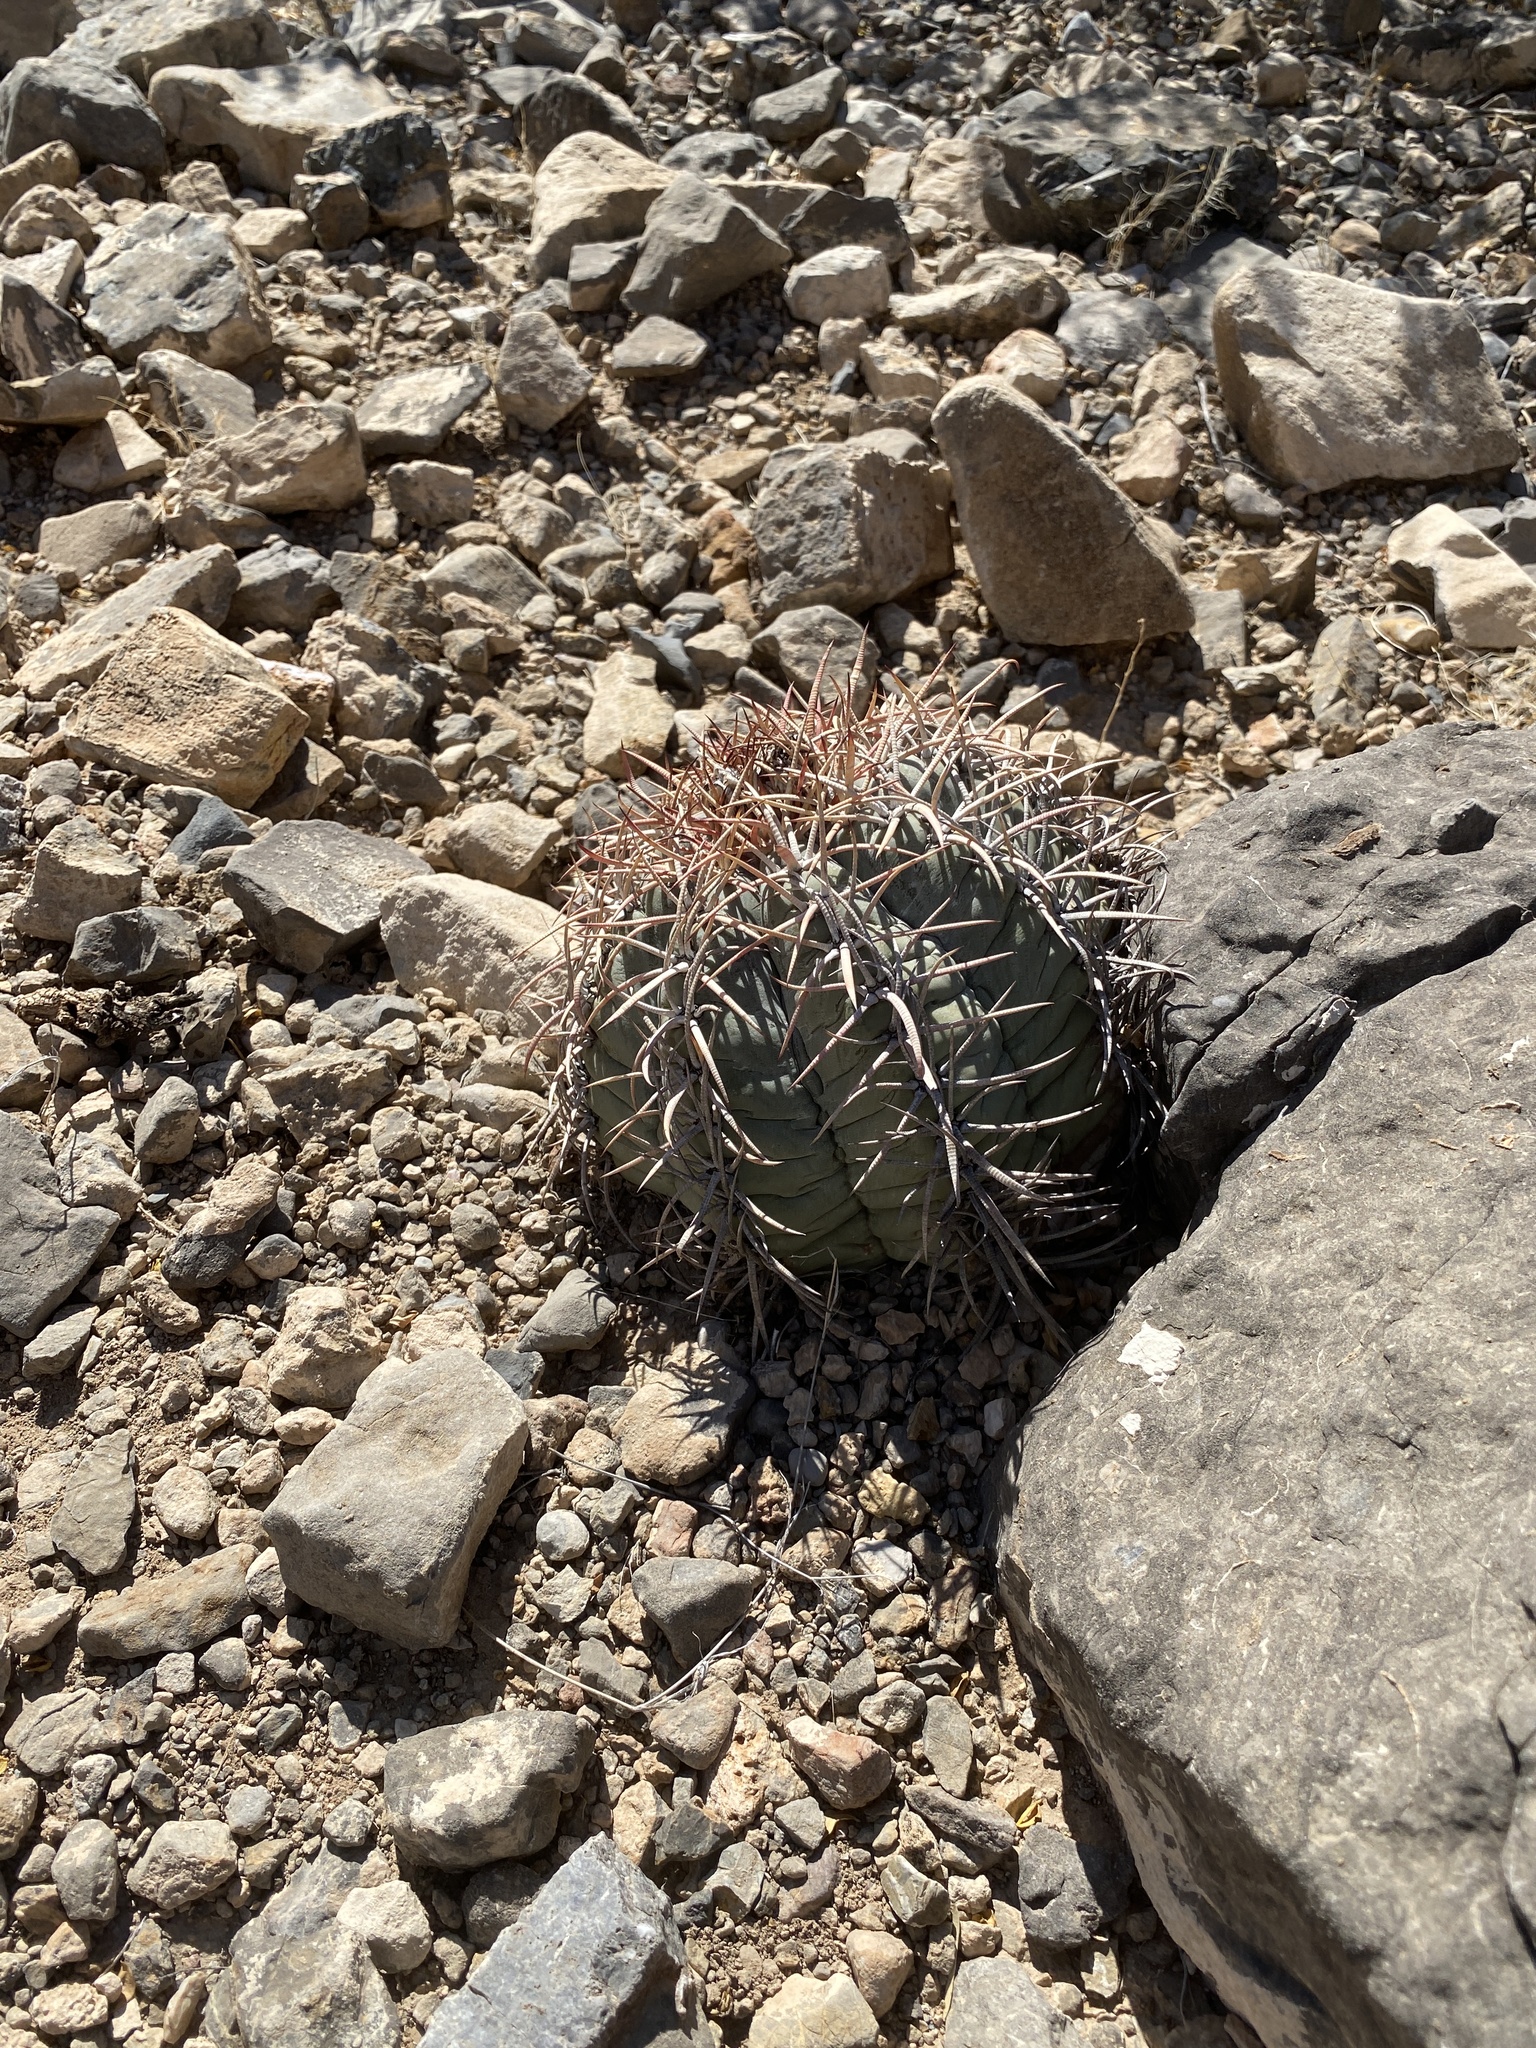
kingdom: Plantae
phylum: Tracheophyta
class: Magnoliopsida
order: Caryophyllales
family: Cactaceae
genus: Echinocactus
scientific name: Echinocactus horizonthalonius
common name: Devilshead
